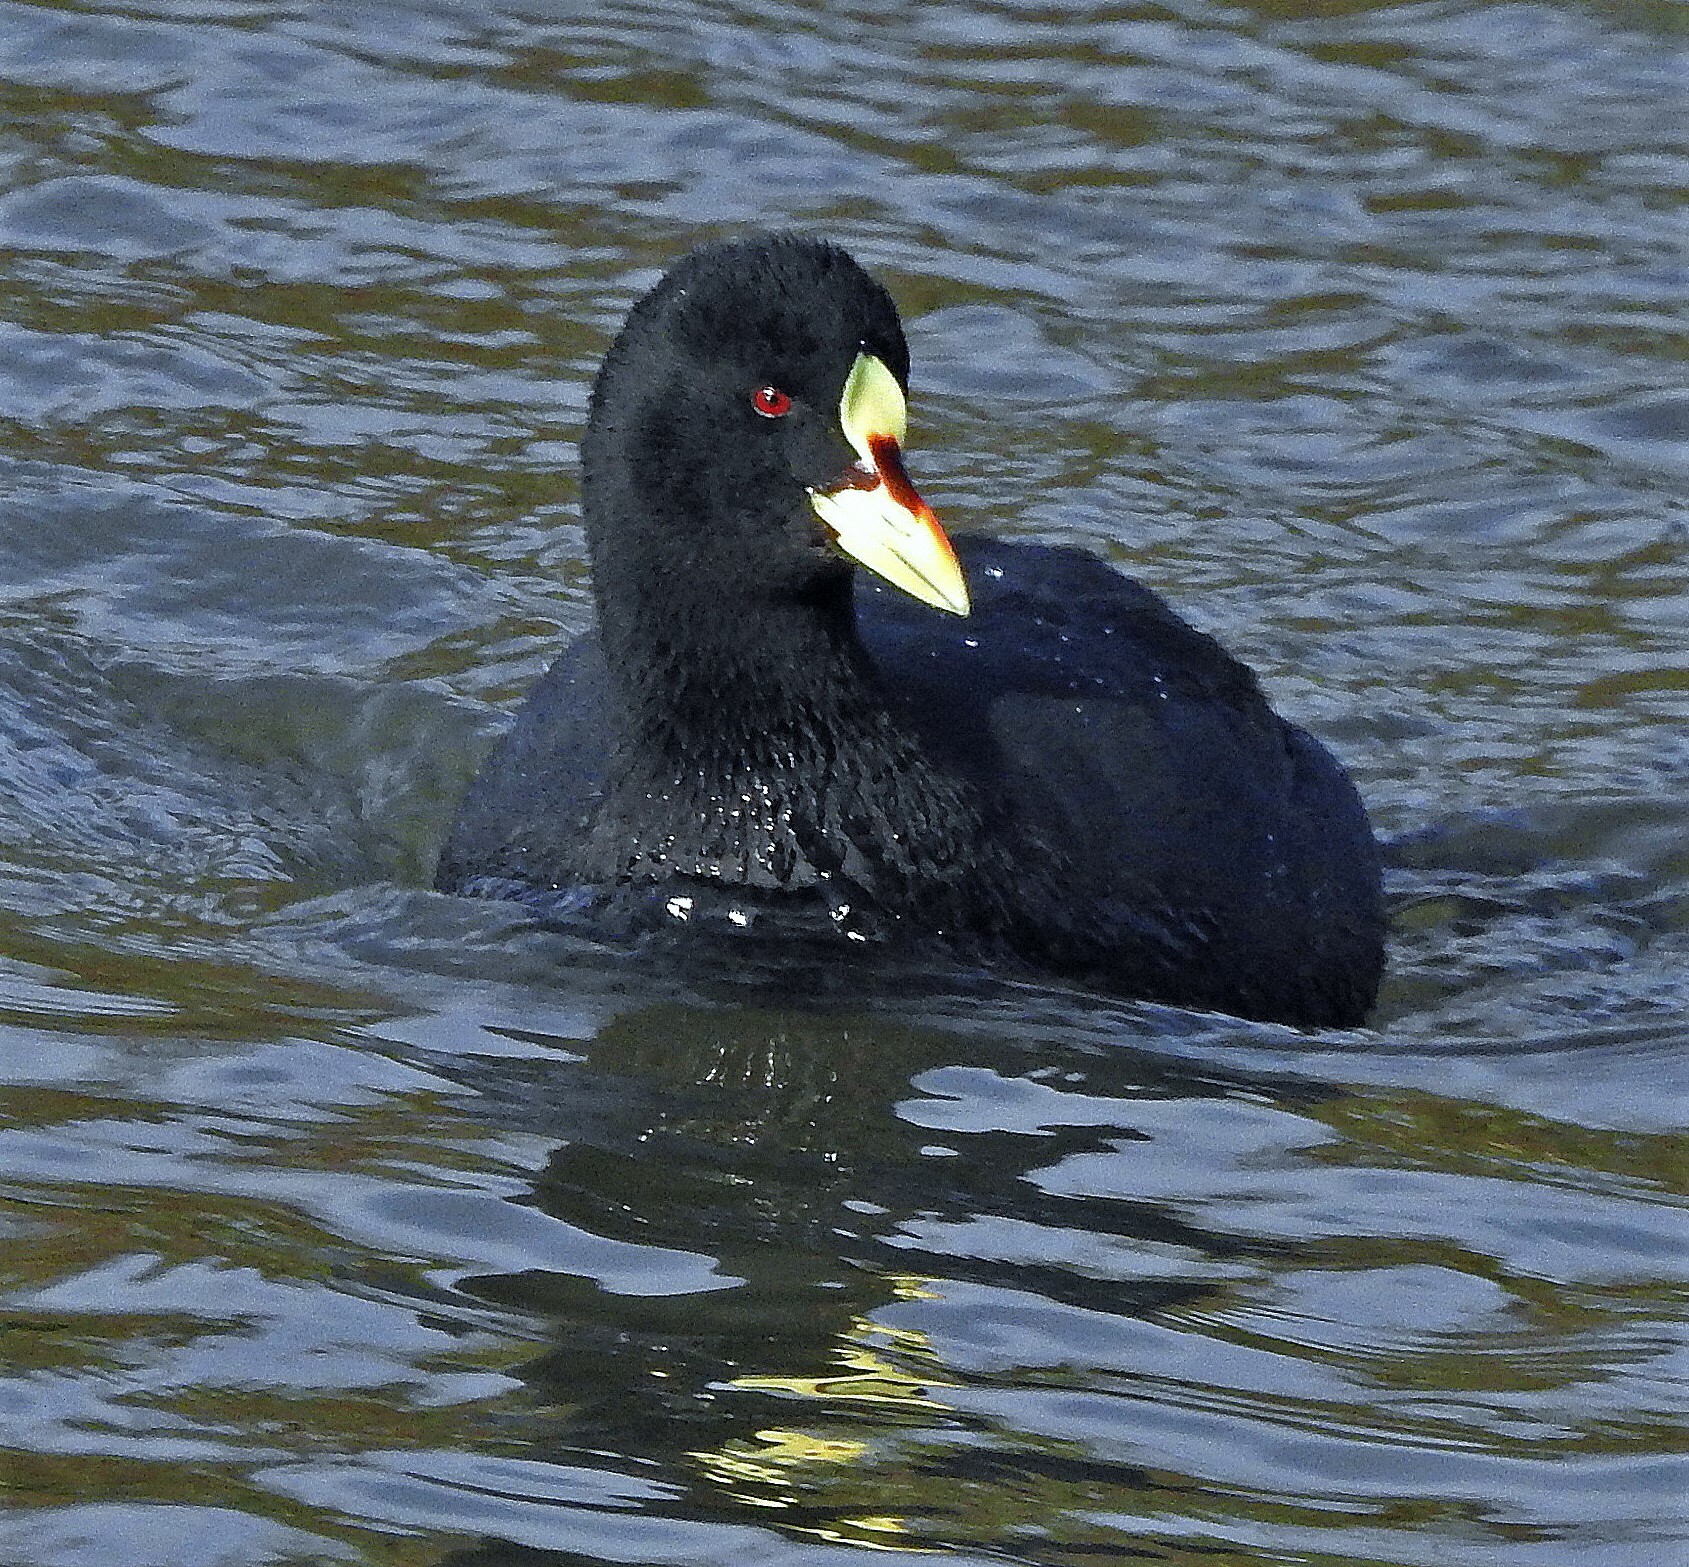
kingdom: Animalia
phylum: Chordata
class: Aves
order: Gruiformes
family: Rallidae
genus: Fulica
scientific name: Fulica armillata
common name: Red-gartered coot
